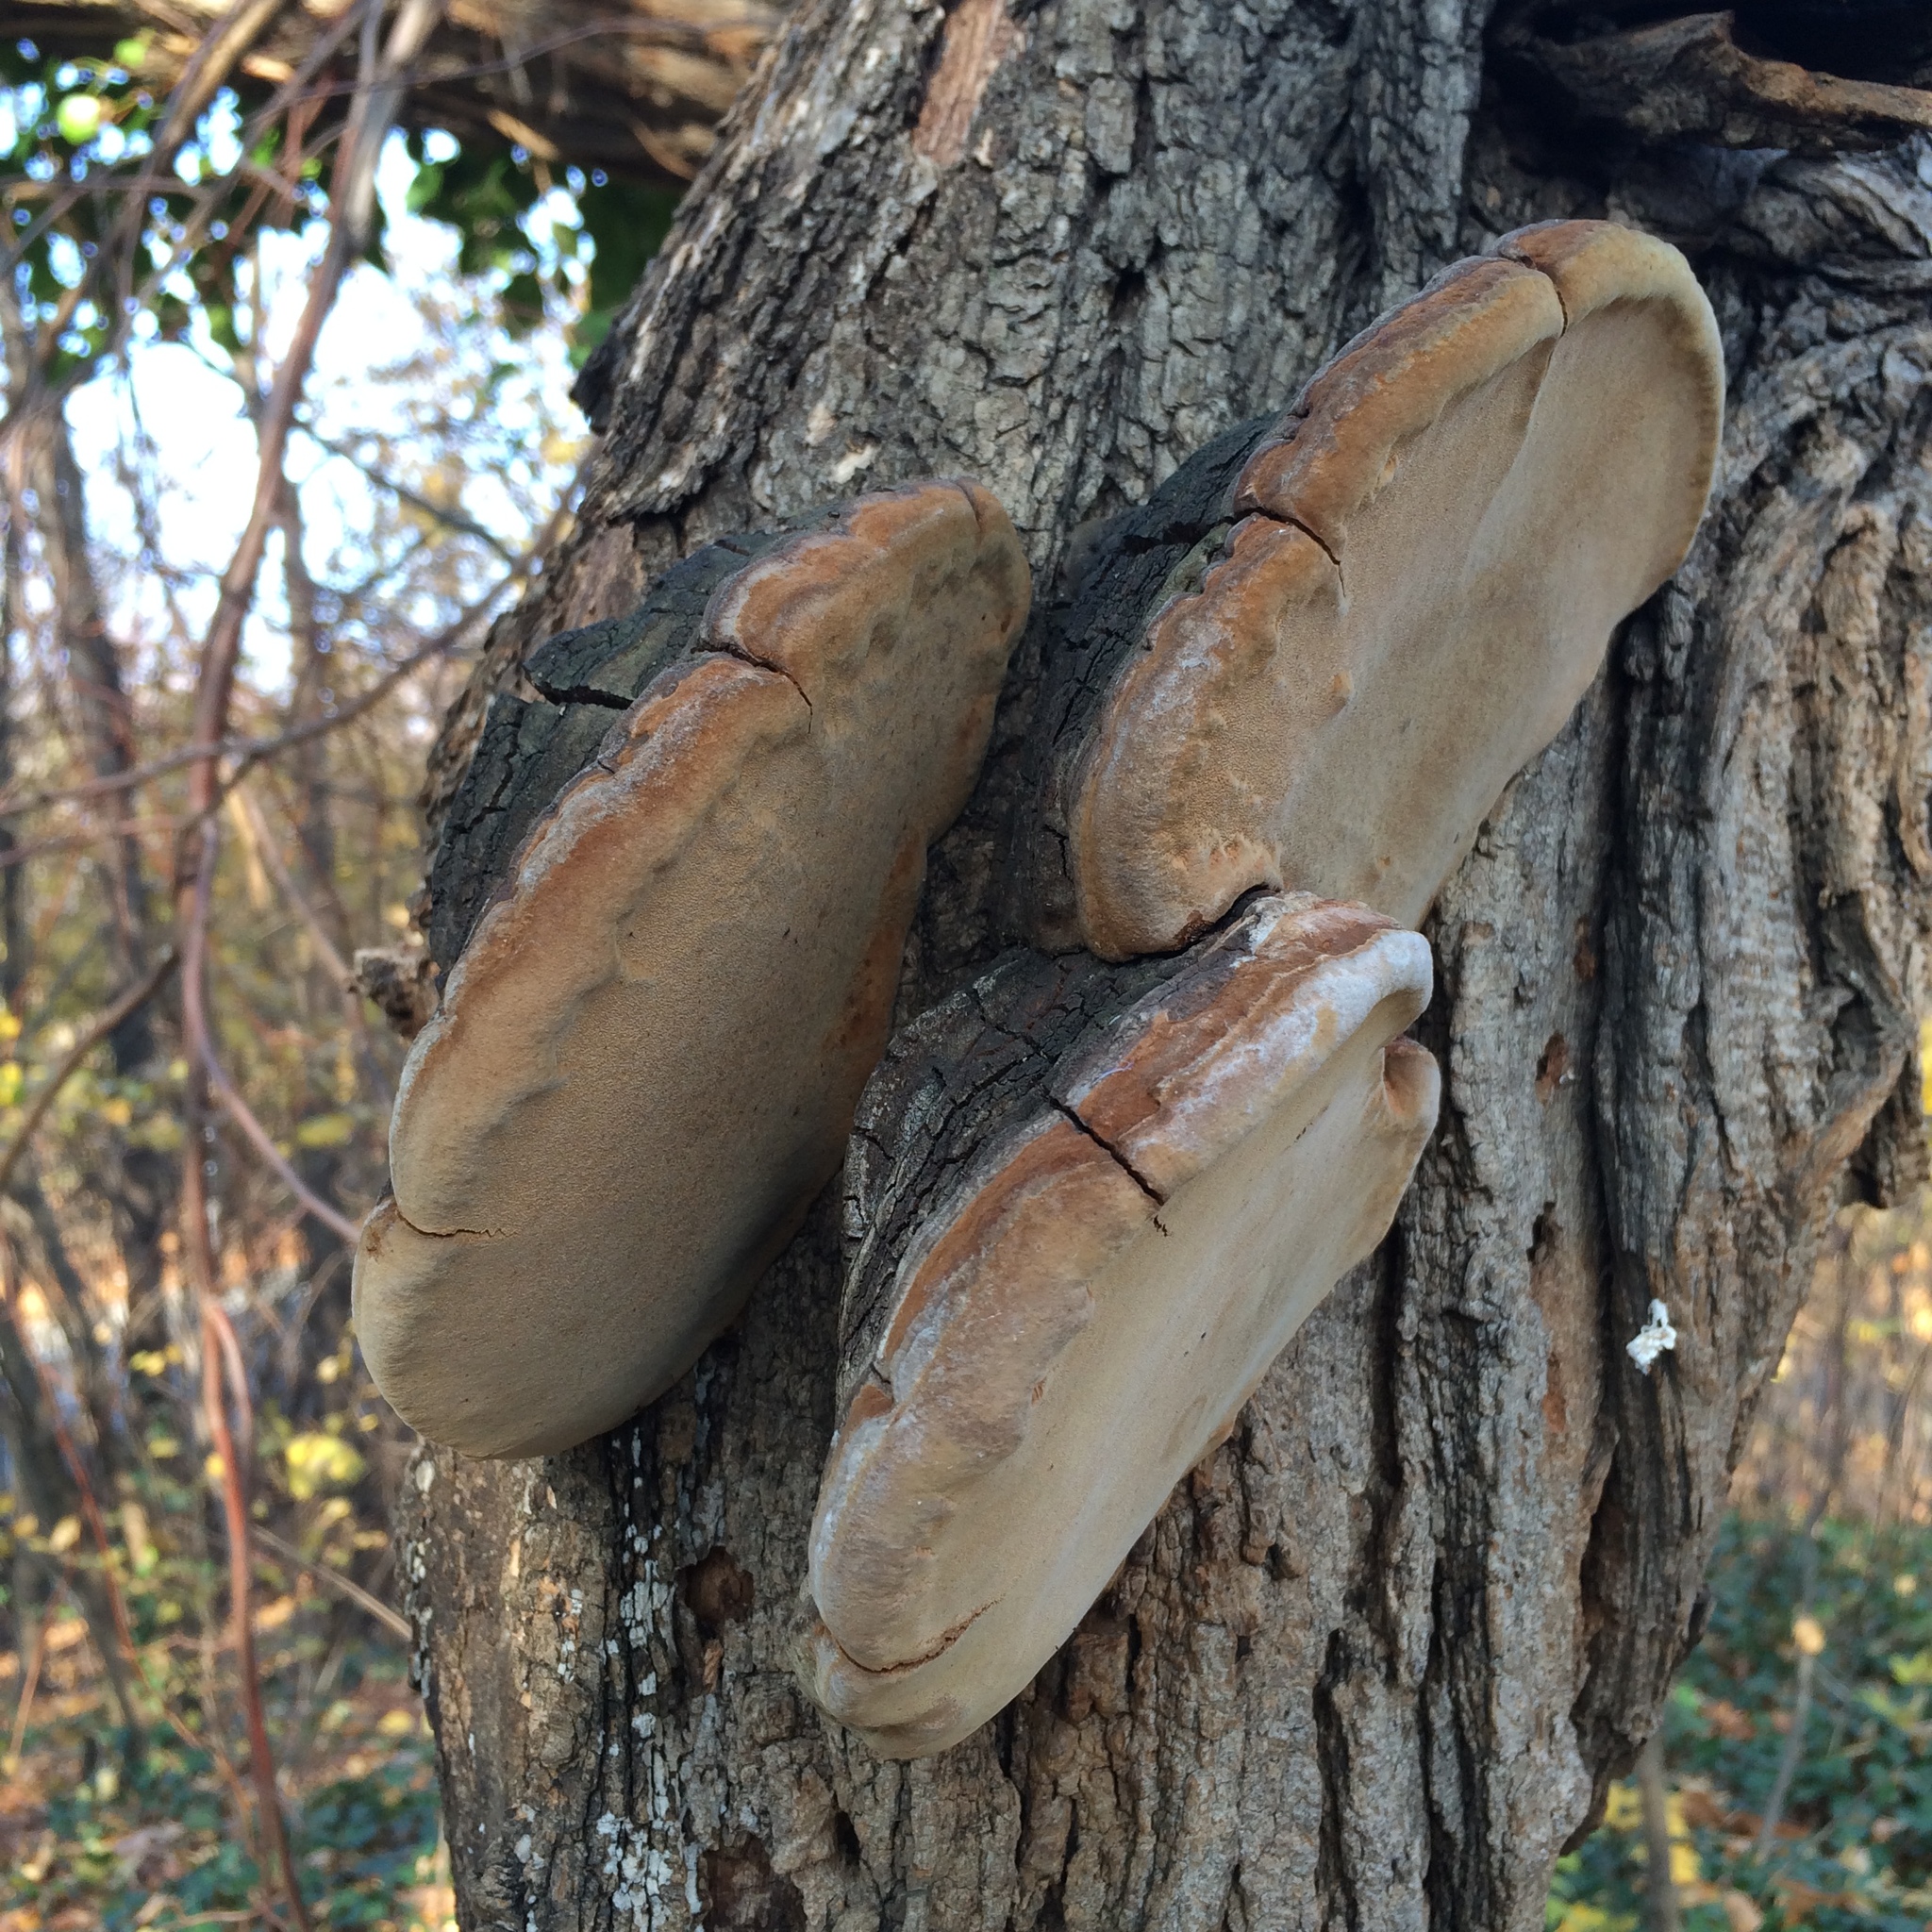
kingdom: Fungi
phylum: Basidiomycota
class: Agaricomycetes
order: Hymenochaetales
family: Hymenochaetaceae
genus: Phellinus
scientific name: Phellinus robiniae
